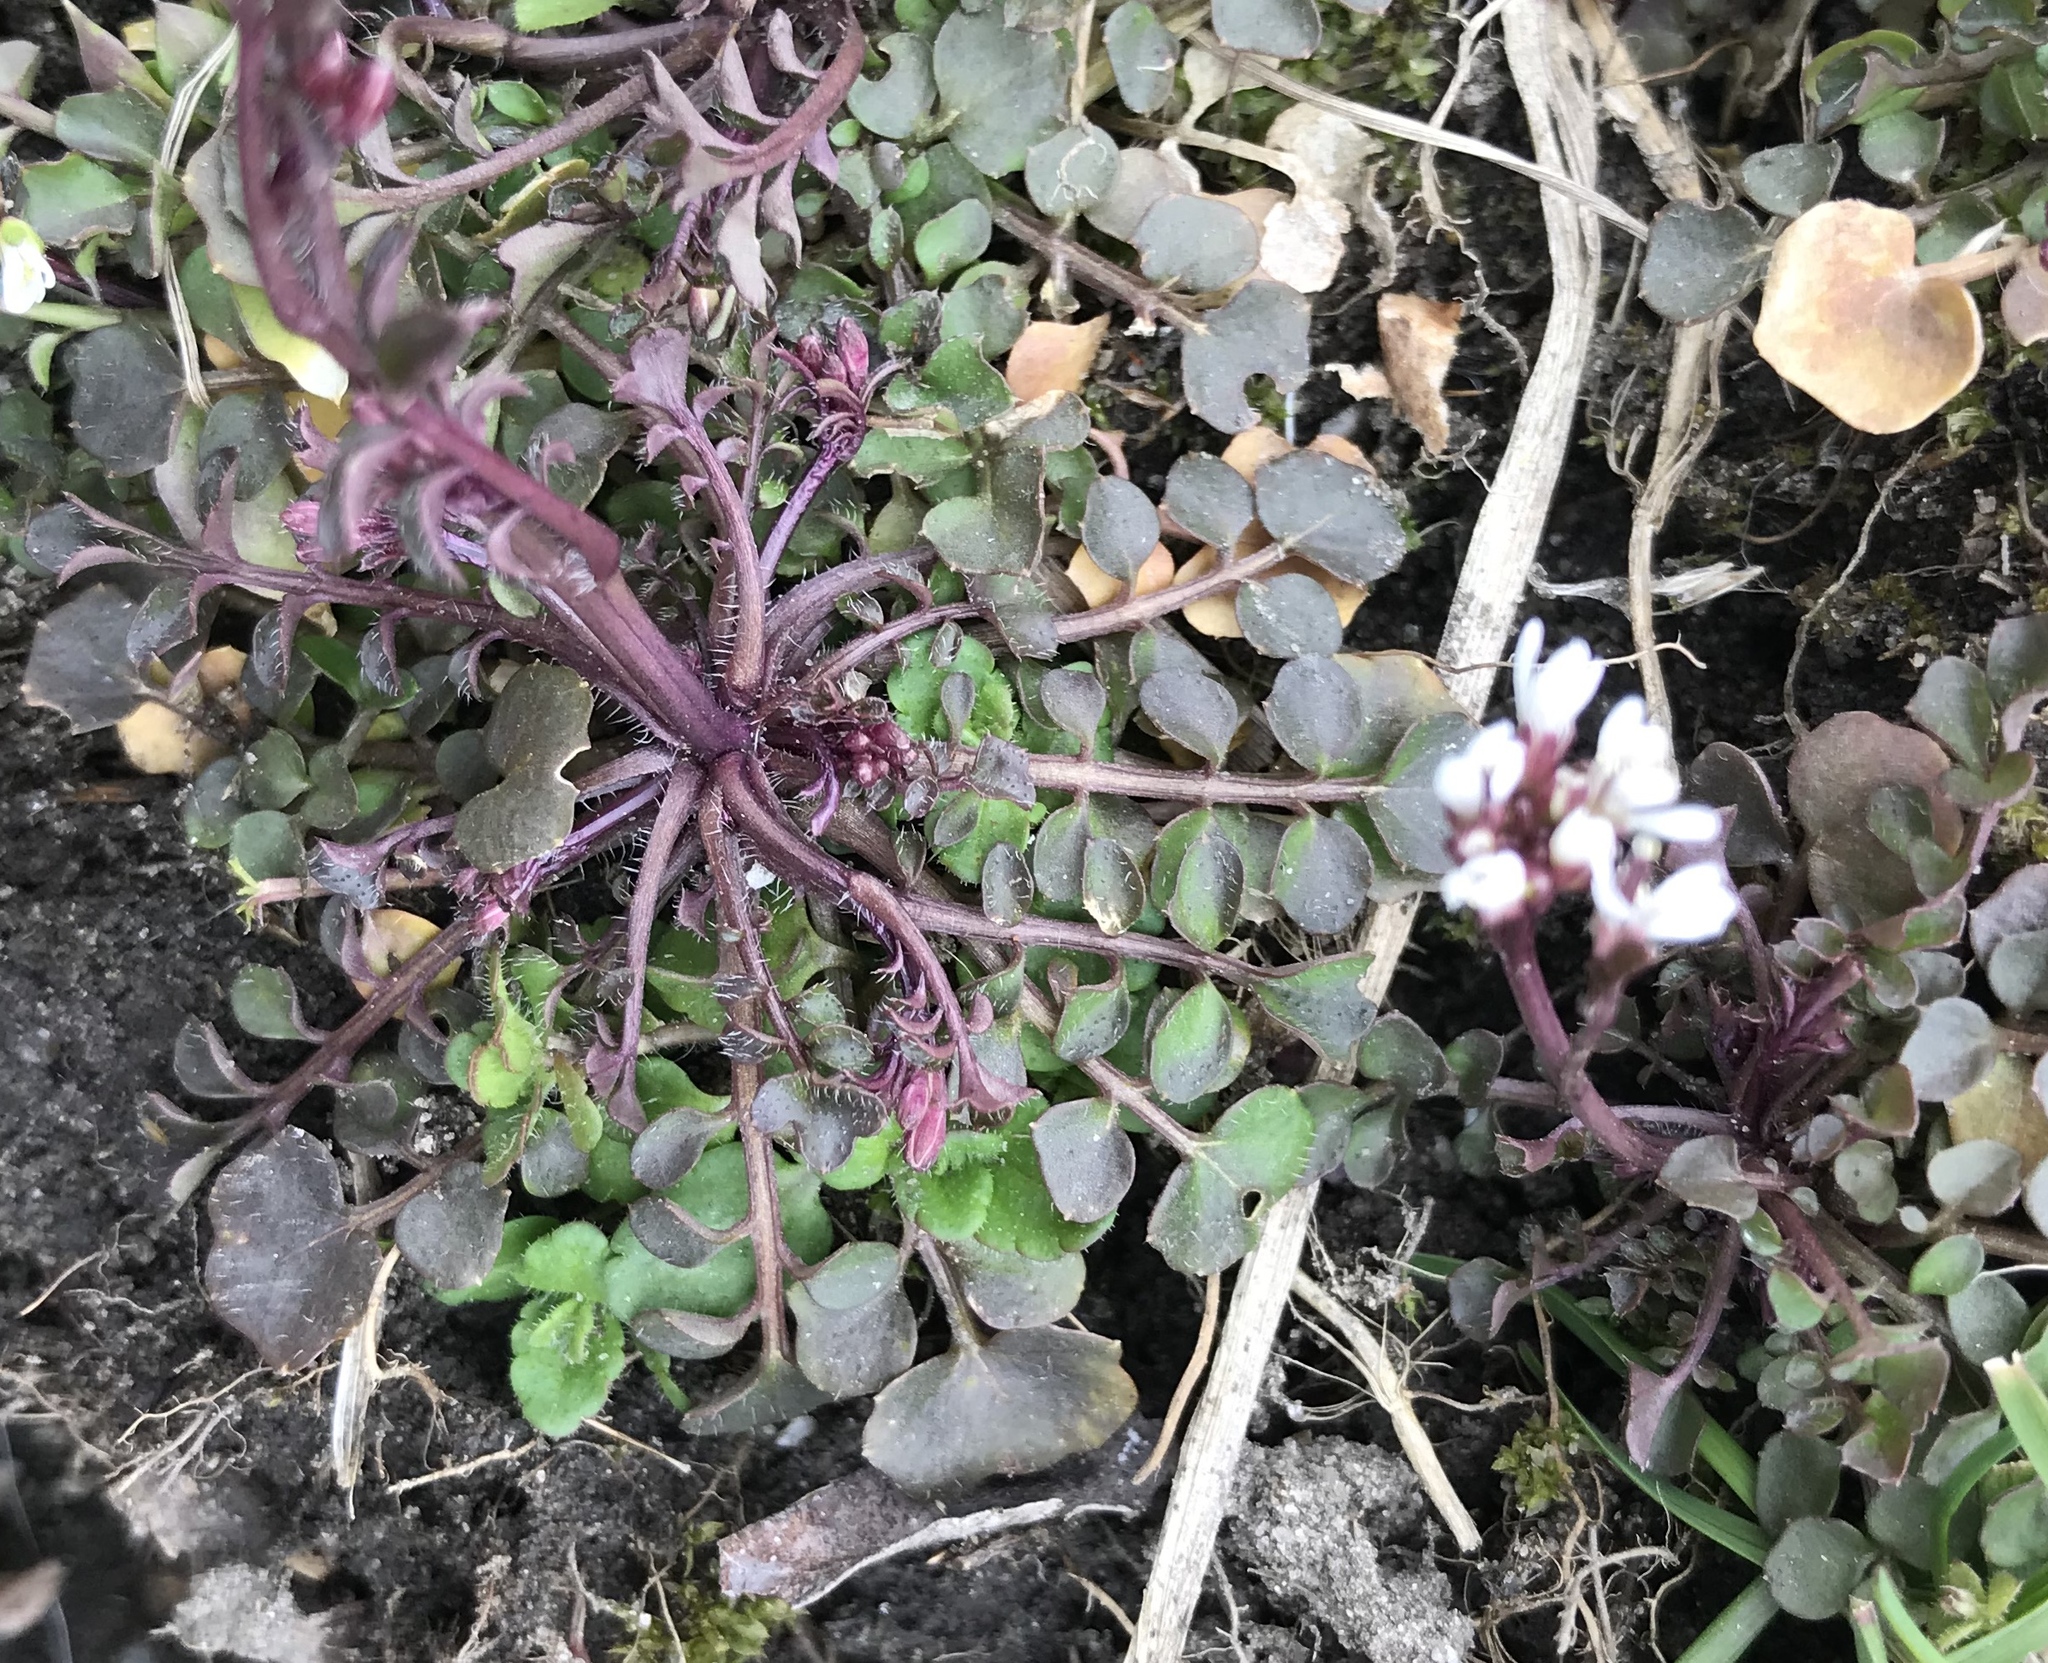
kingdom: Plantae
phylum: Tracheophyta
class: Magnoliopsida
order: Brassicales
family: Brassicaceae
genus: Cardamine
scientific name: Cardamine hirsuta
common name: Hairy bittercress
